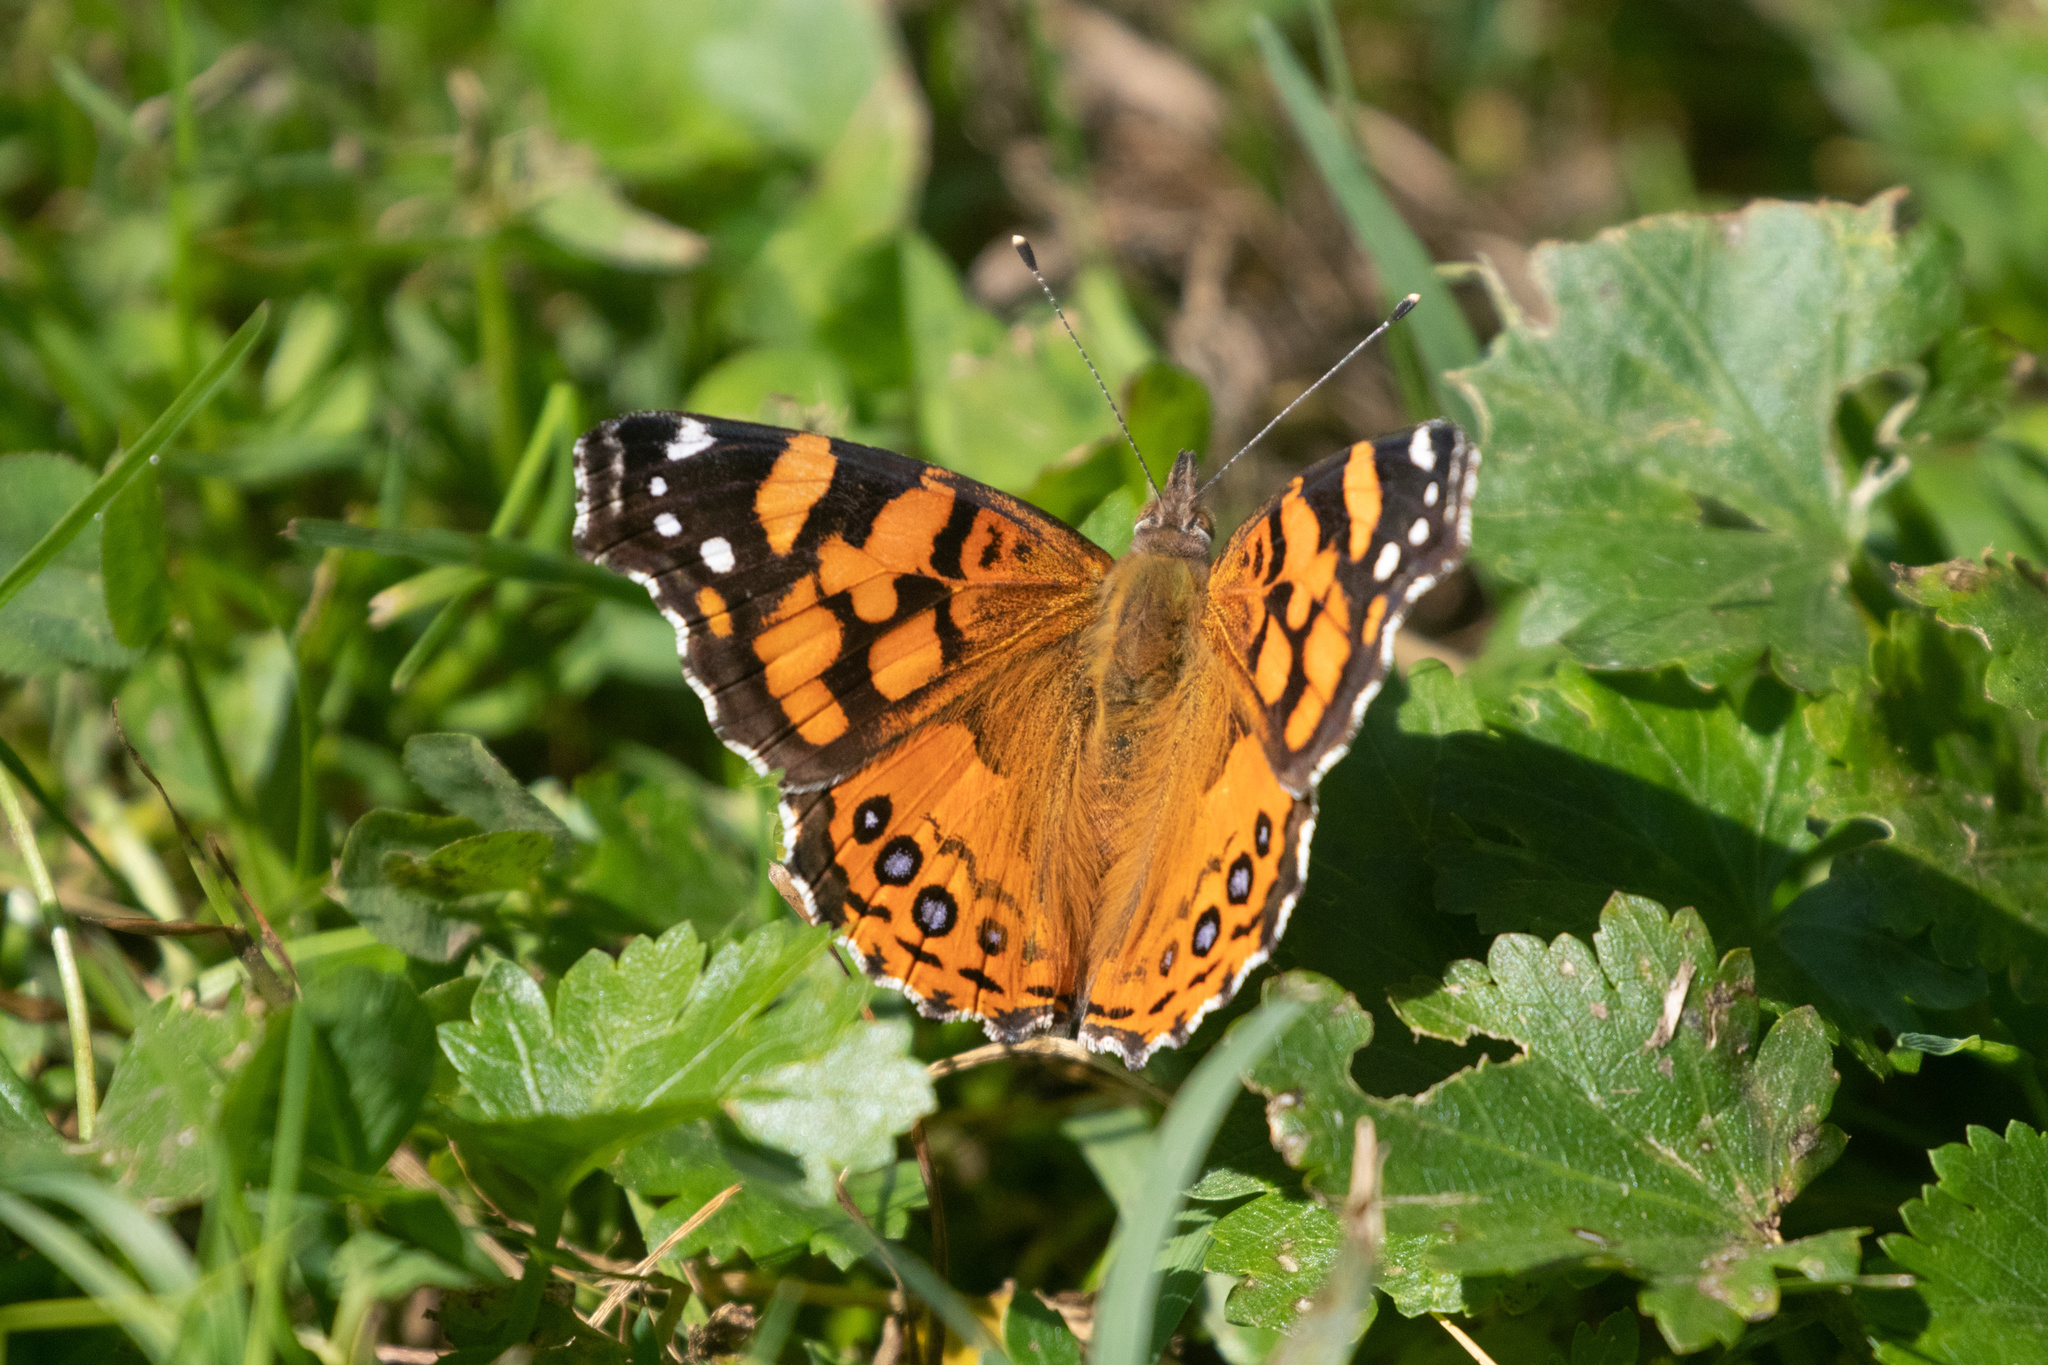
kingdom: Animalia
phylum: Arthropoda
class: Insecta
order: Lepidoptera
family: Nymphalidae
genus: Vanessa
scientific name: Vanessa annabella
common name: West coast lady
